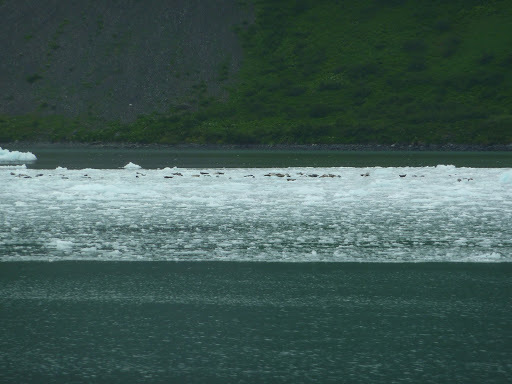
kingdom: Animalia
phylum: Chordata
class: Mammalia
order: Carnivora
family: Phocidae
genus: Phoca
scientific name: Phoca vitulina
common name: Harbor seal
